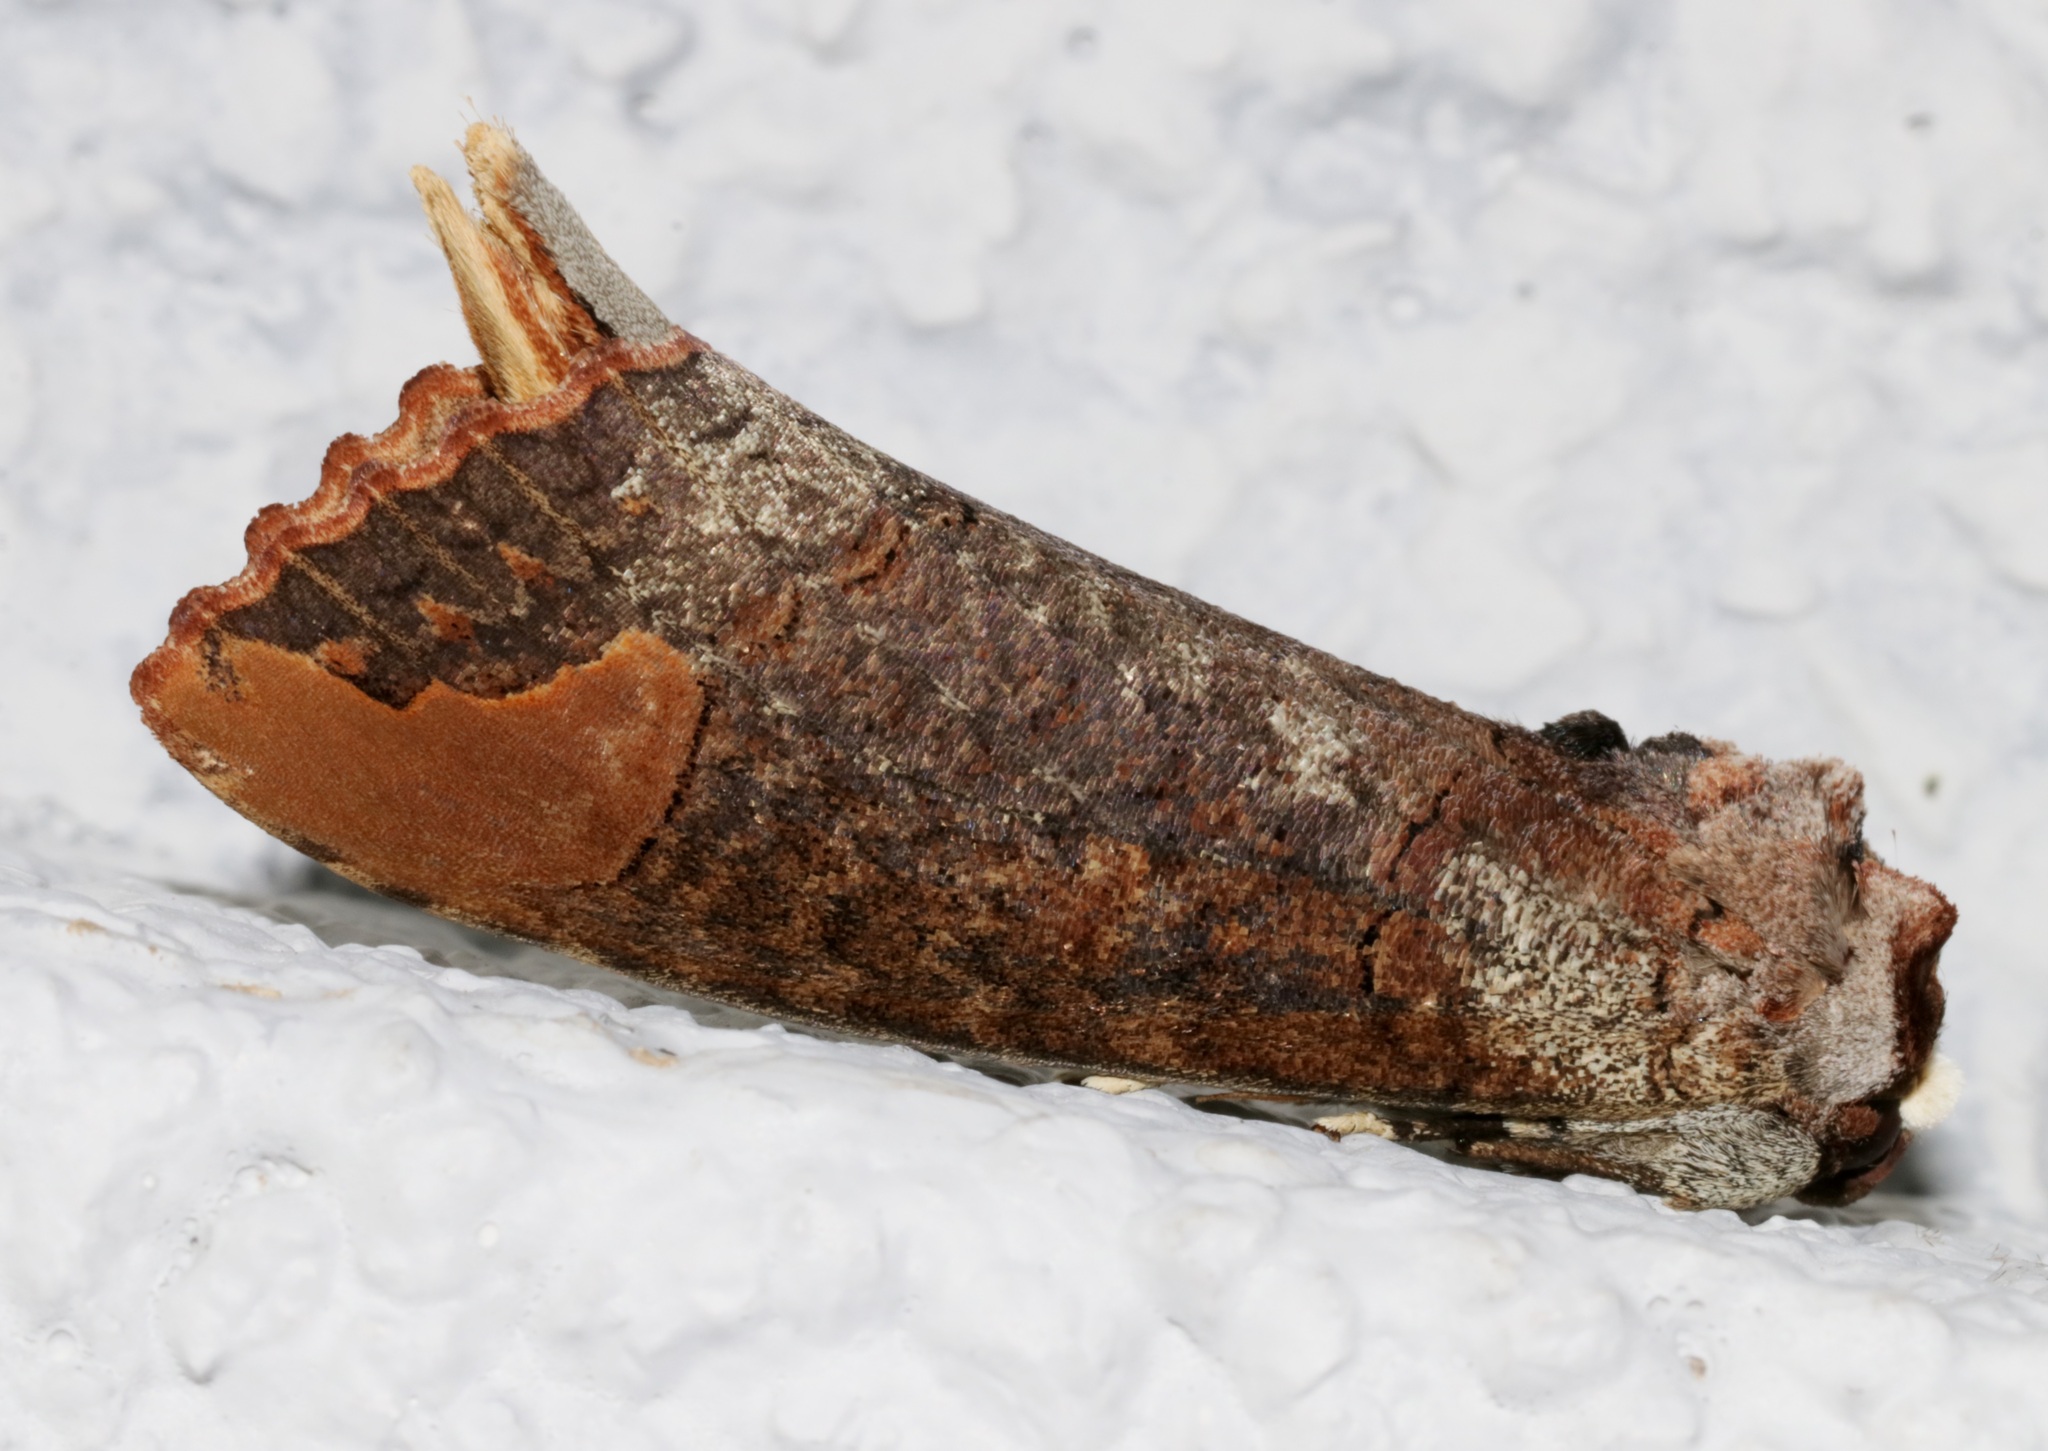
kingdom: Animalia
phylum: Arthropoda
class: Insecta
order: Lepidoptera
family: Notodontidae
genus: Phalera
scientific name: Phalera grotei
